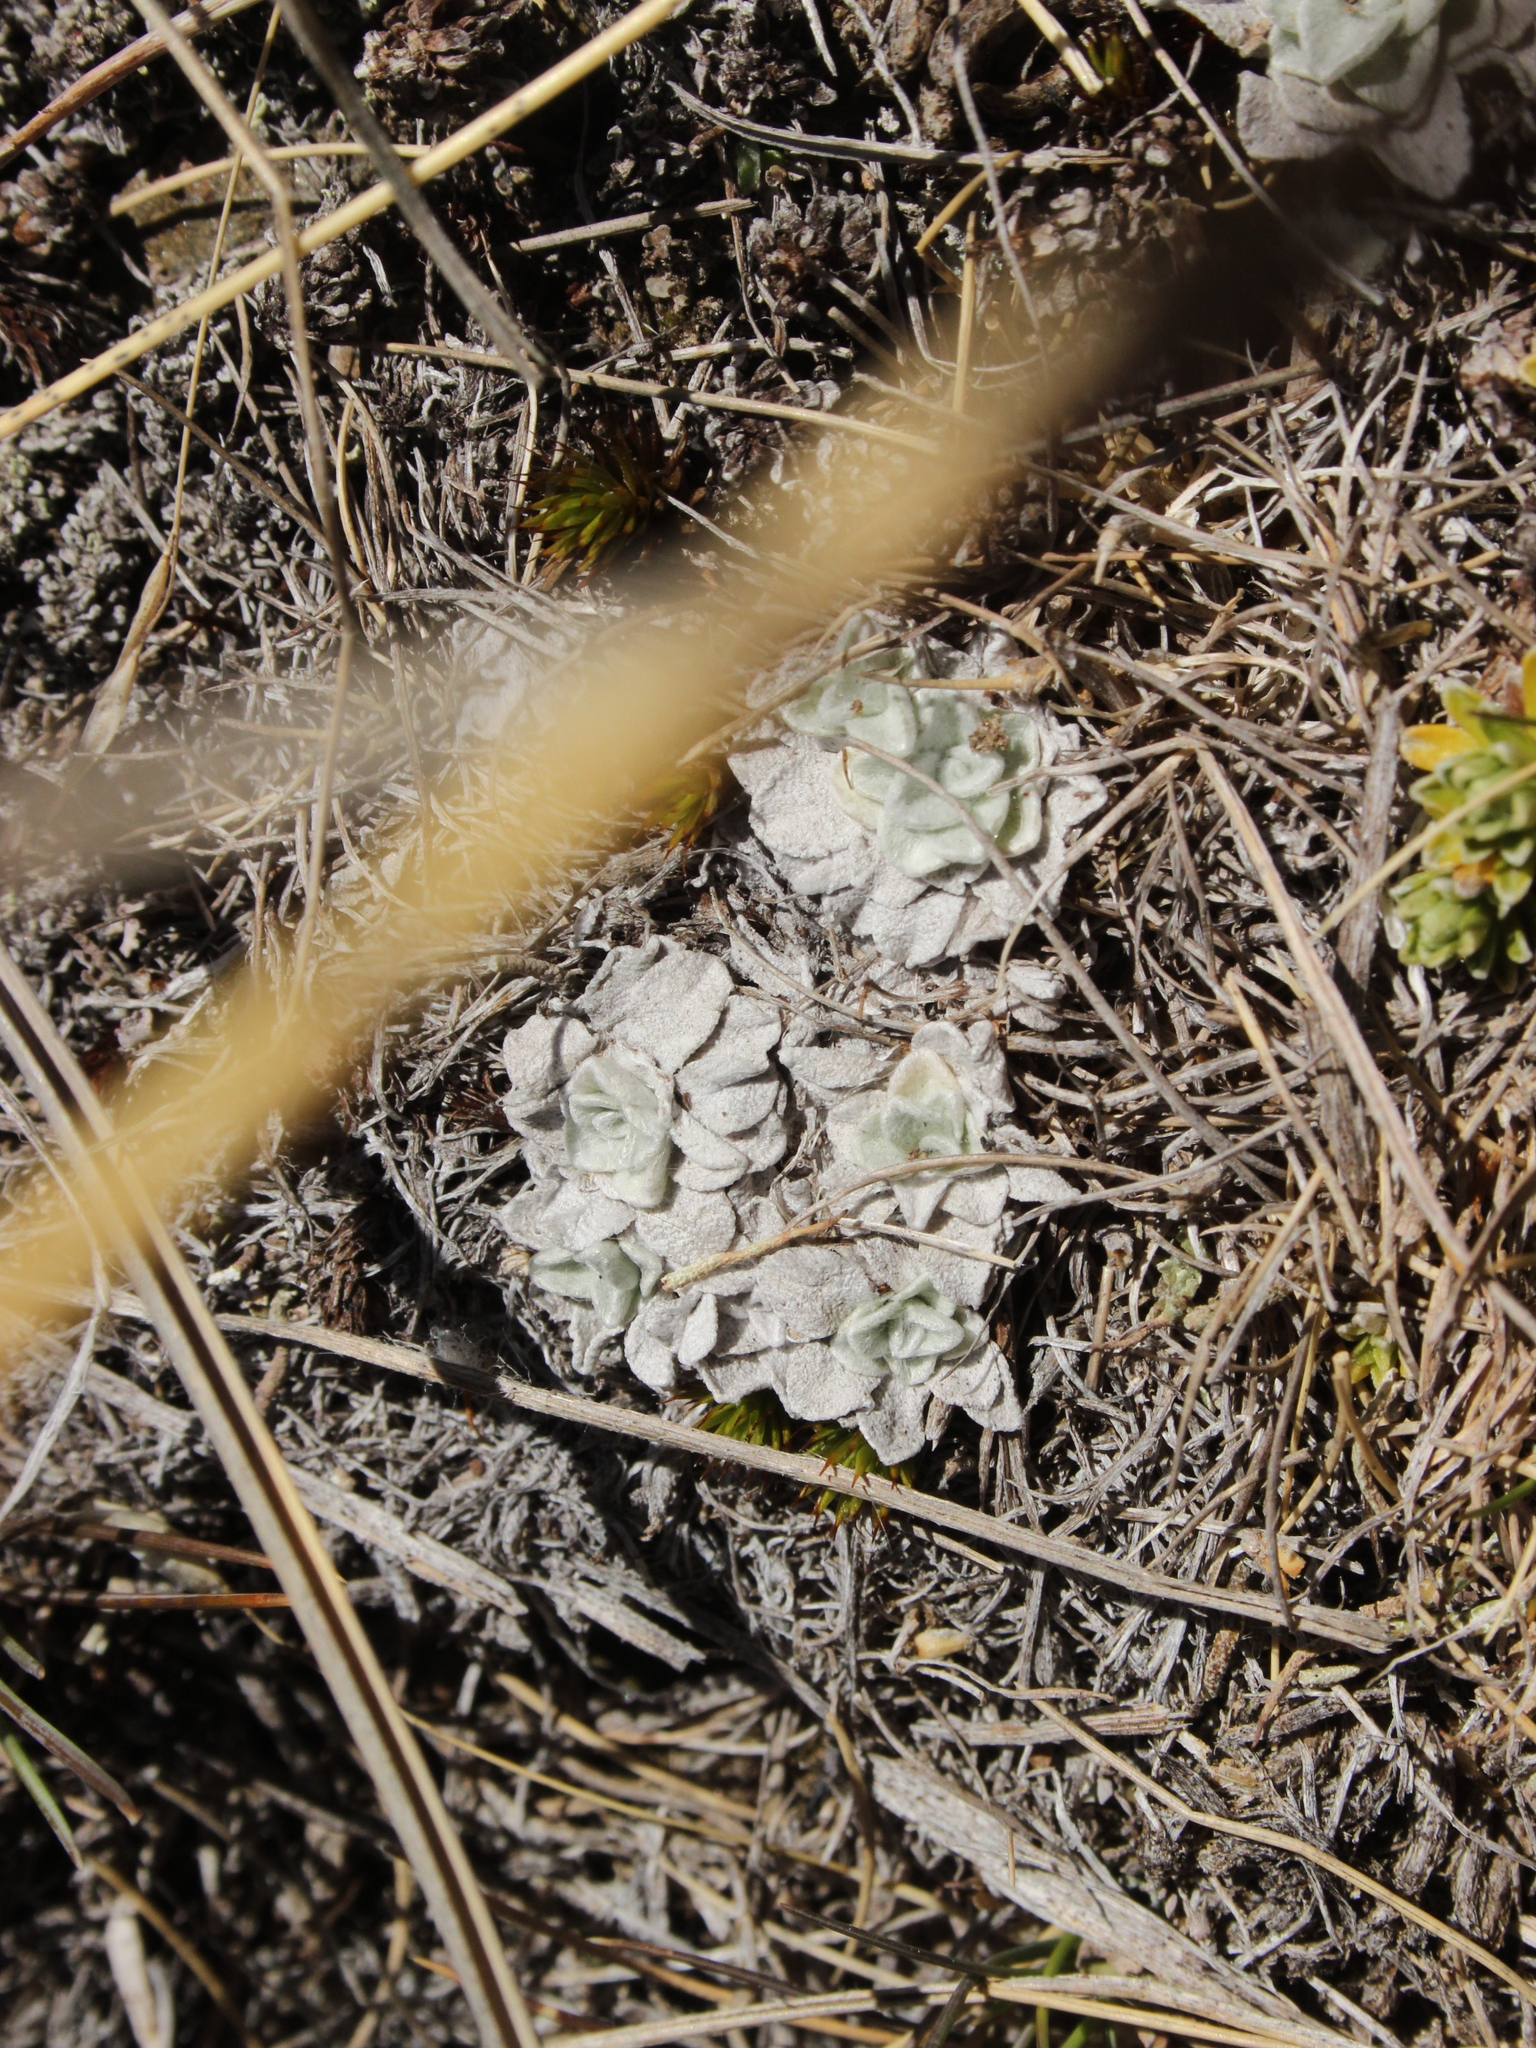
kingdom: Plantae
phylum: Tracheophyta
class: Magnoliopsida
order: Asterales
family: Asteraceae
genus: Argyrotegium
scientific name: Argyrotegium mackayi
